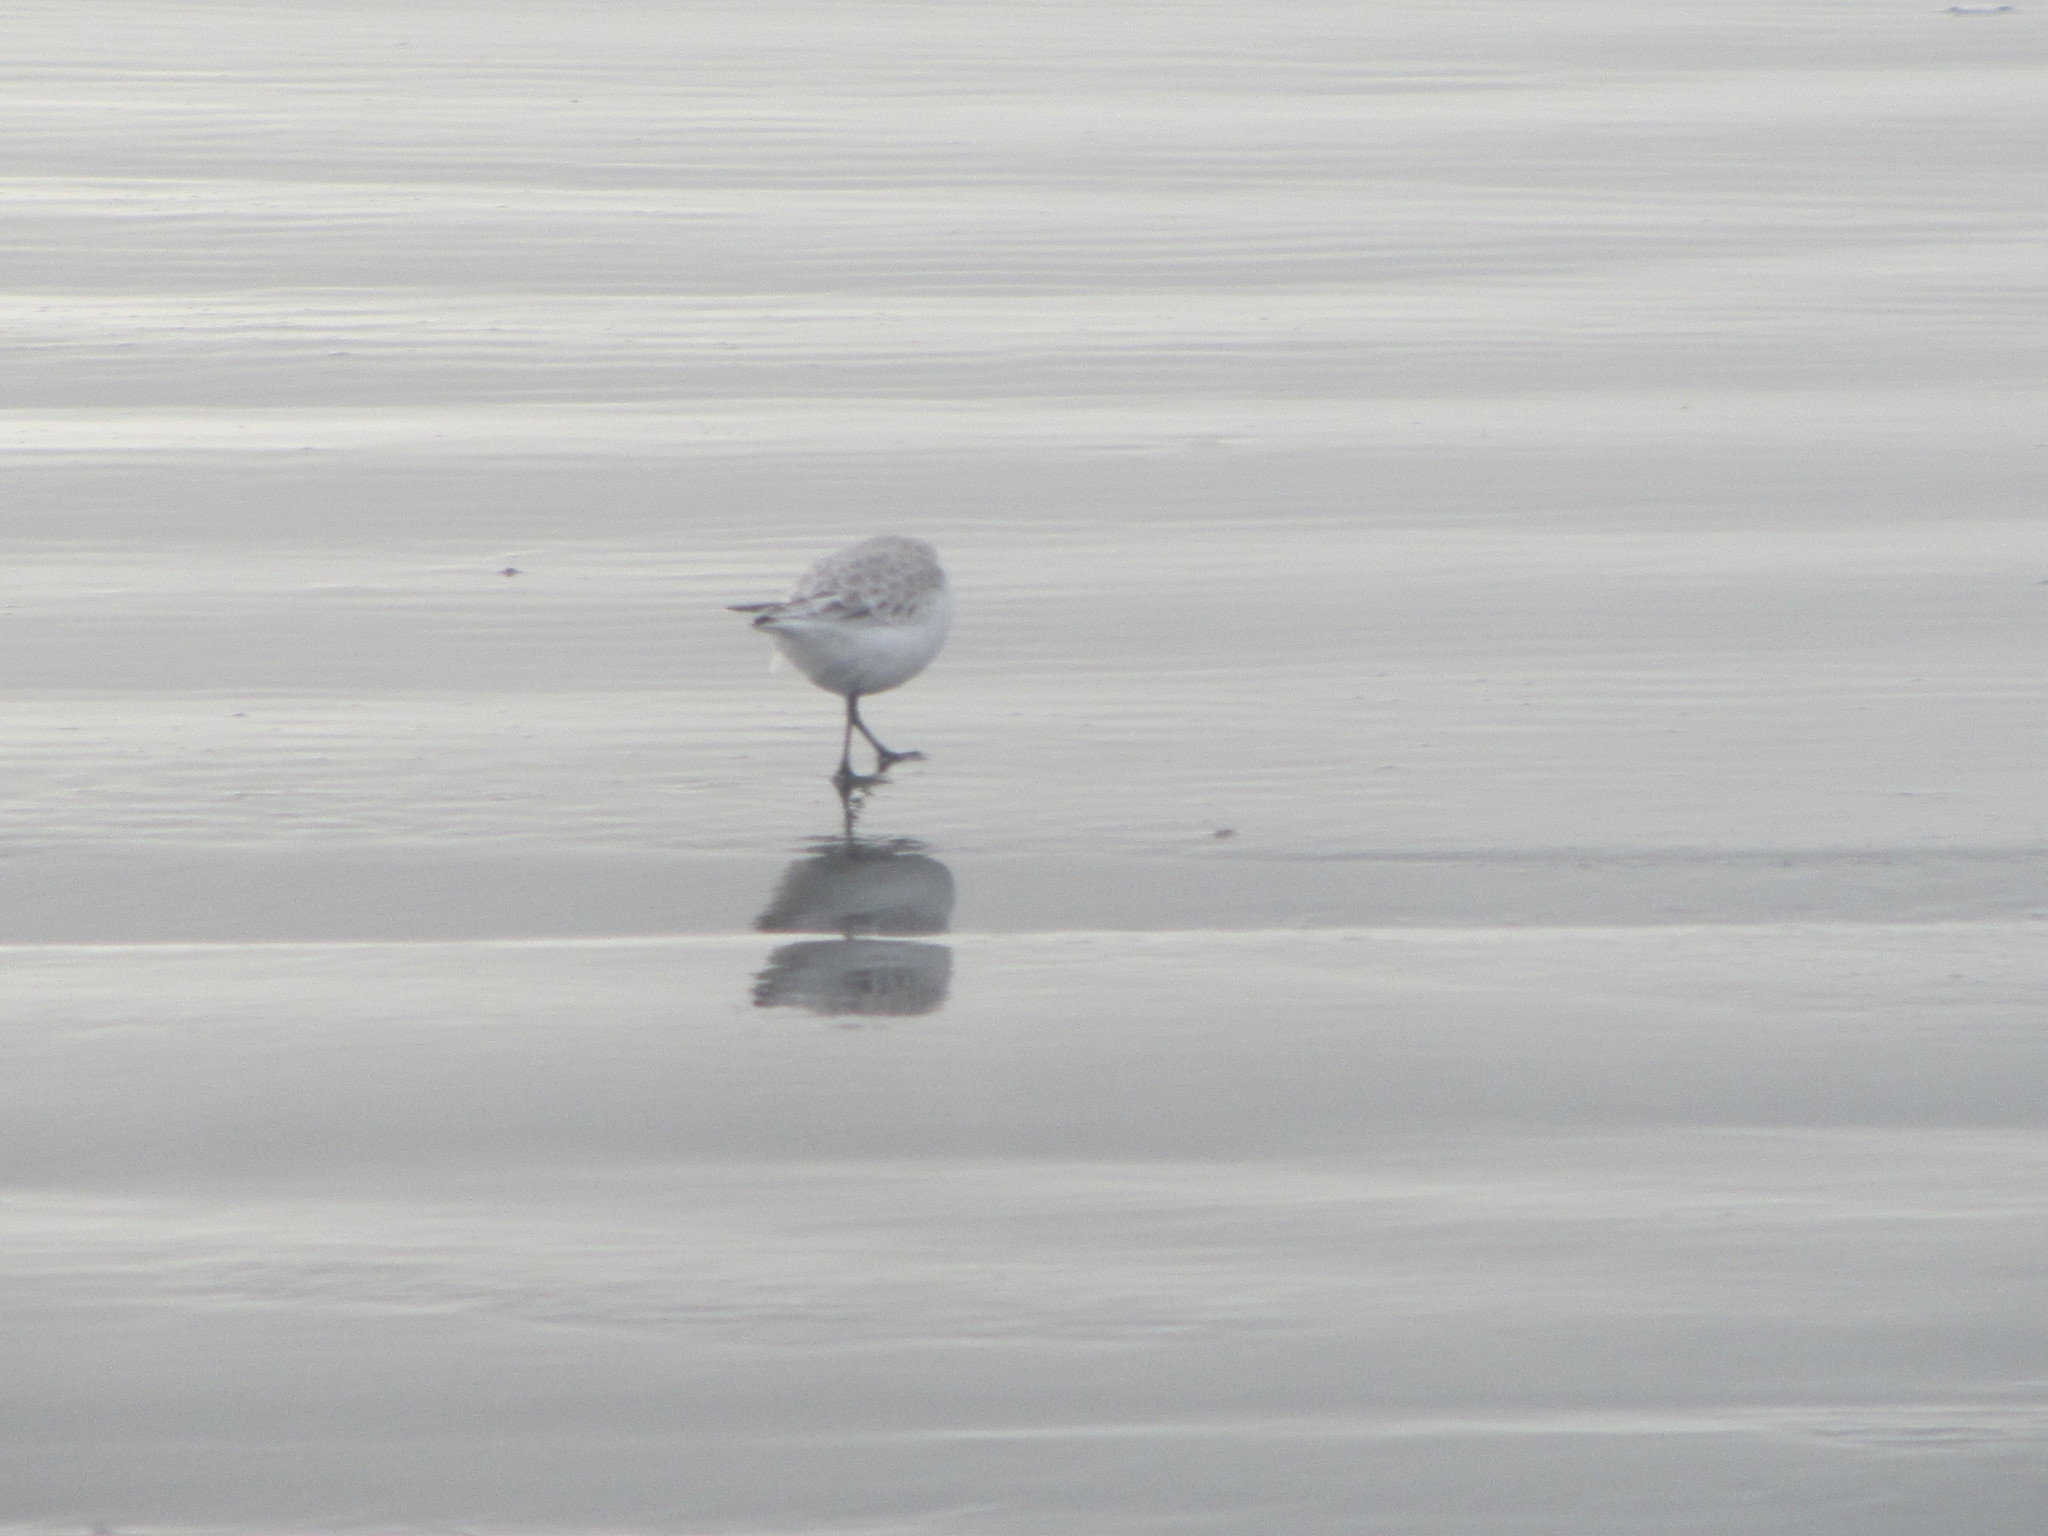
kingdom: Animalia
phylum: Chordata
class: Aves
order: Charadriiformes
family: Scolopacidae
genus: Calidris
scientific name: Calidris alba
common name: Sanderling
